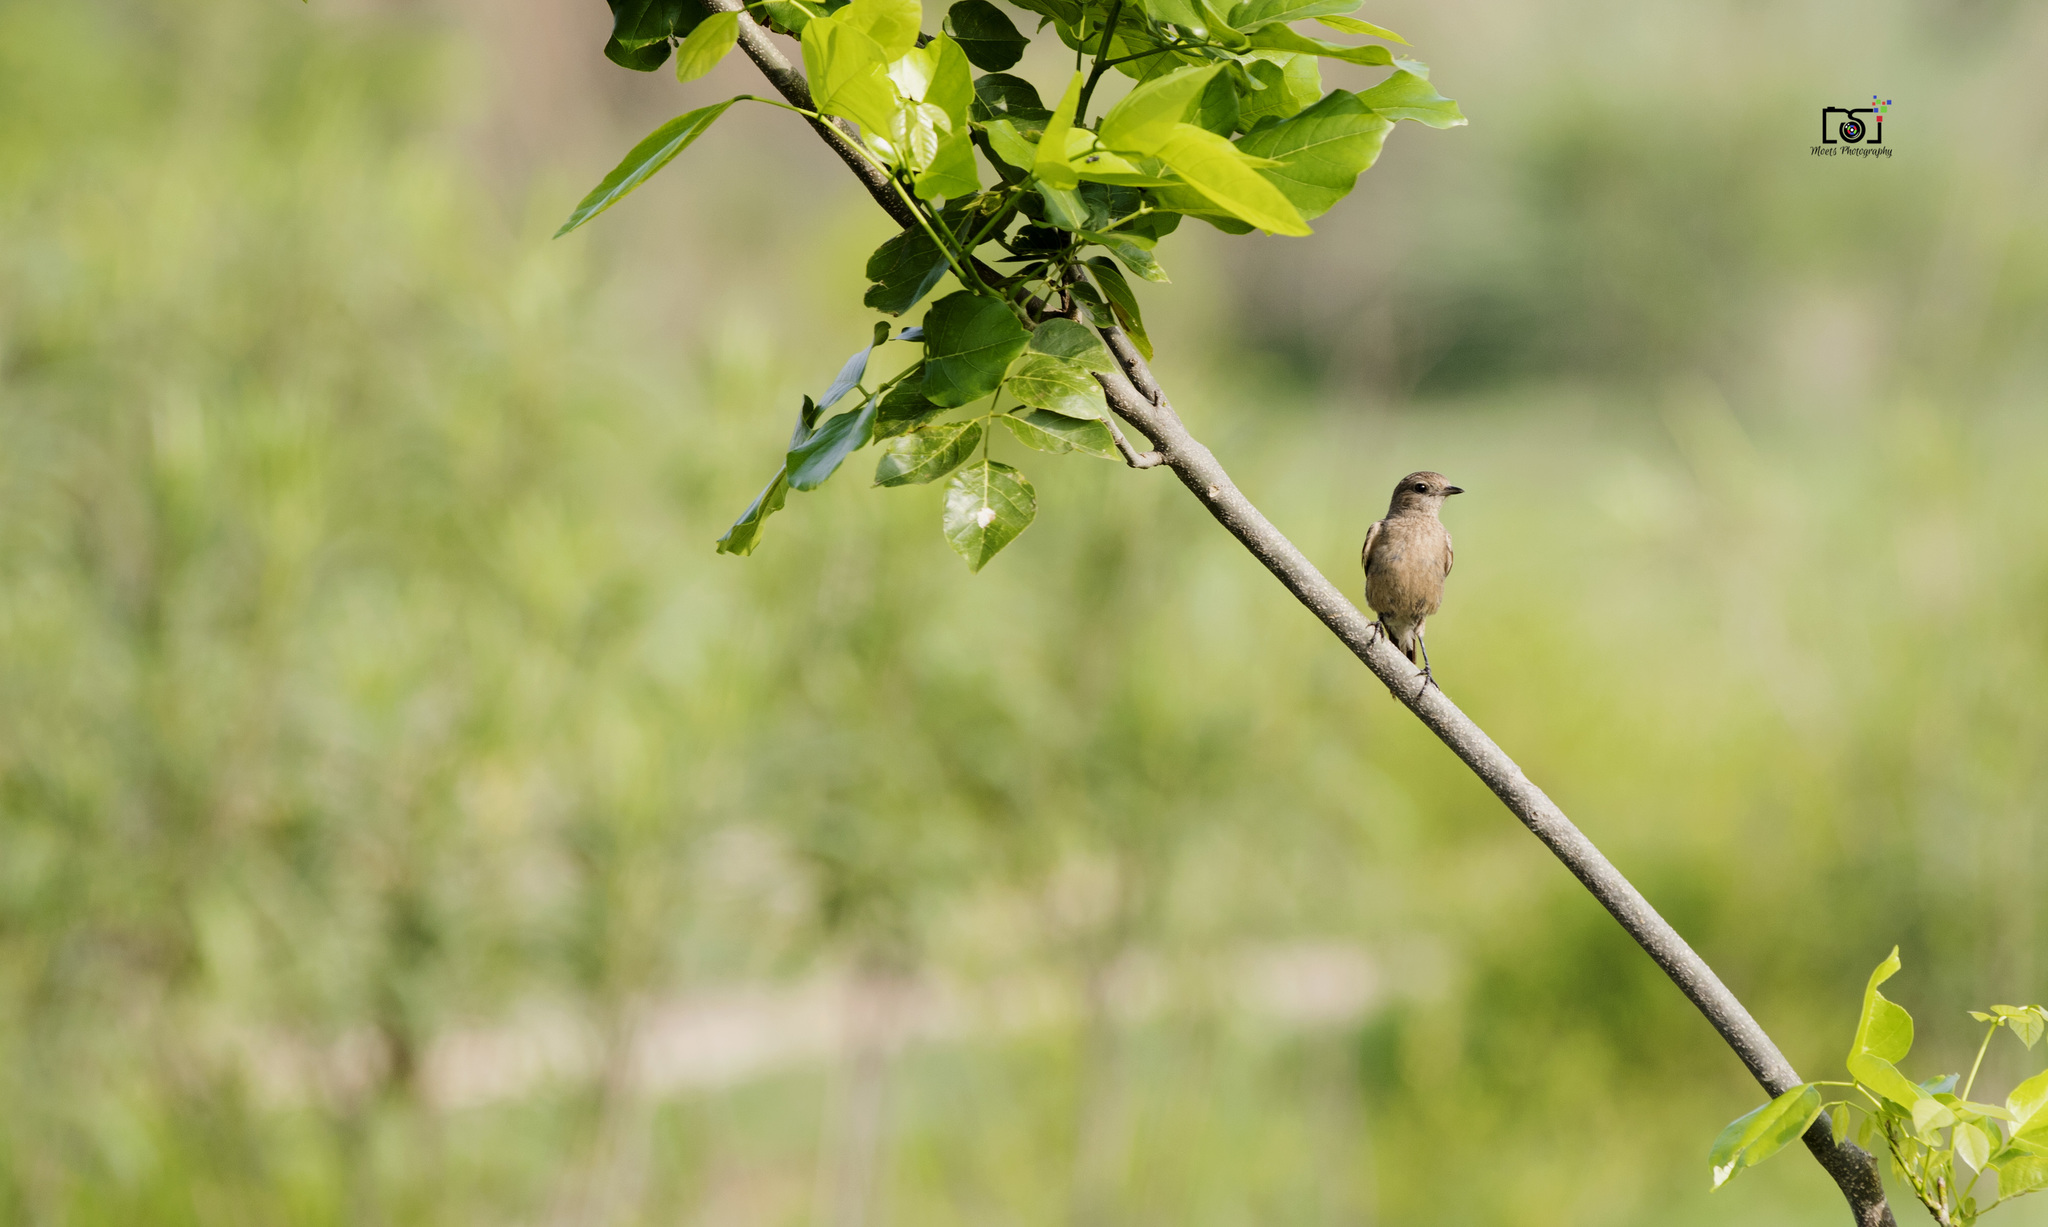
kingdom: Animalia
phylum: Chordata
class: Aves
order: Passeriformes
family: Muscicapidae
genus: Saxicola
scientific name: Saxicola caprata
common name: Pied bush chat
